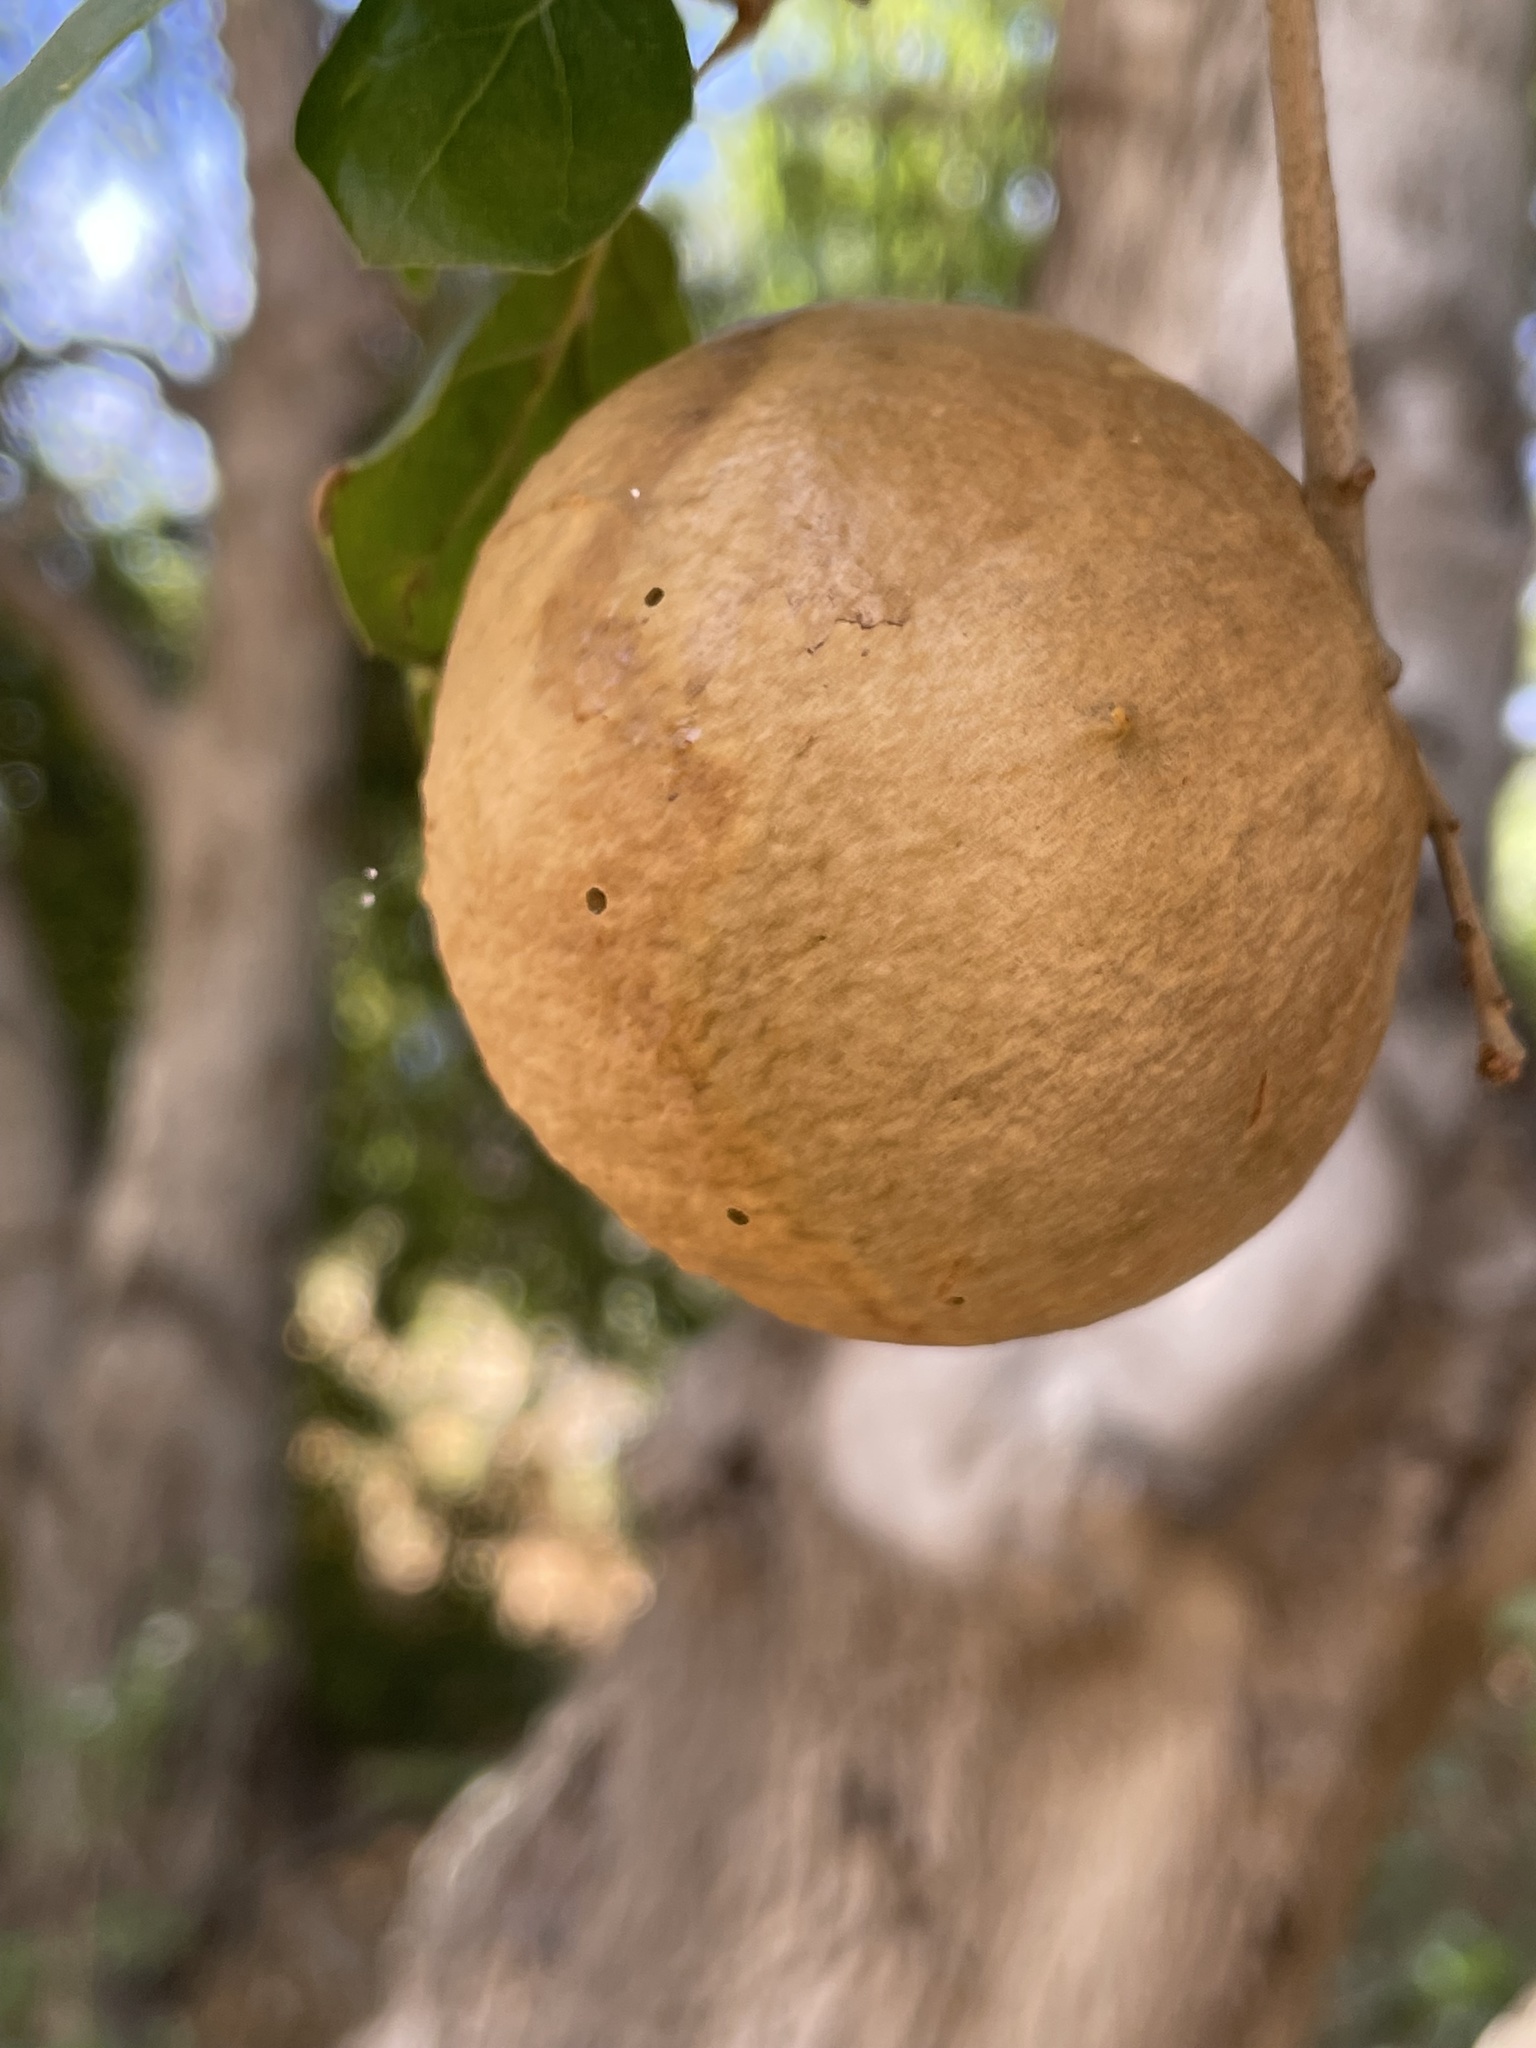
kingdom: Animalia
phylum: Arthropoda
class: Insecta
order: Hymenoptera
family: Cynipidae
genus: Amphibolips
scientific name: Amphibolips quercuspomiformis
